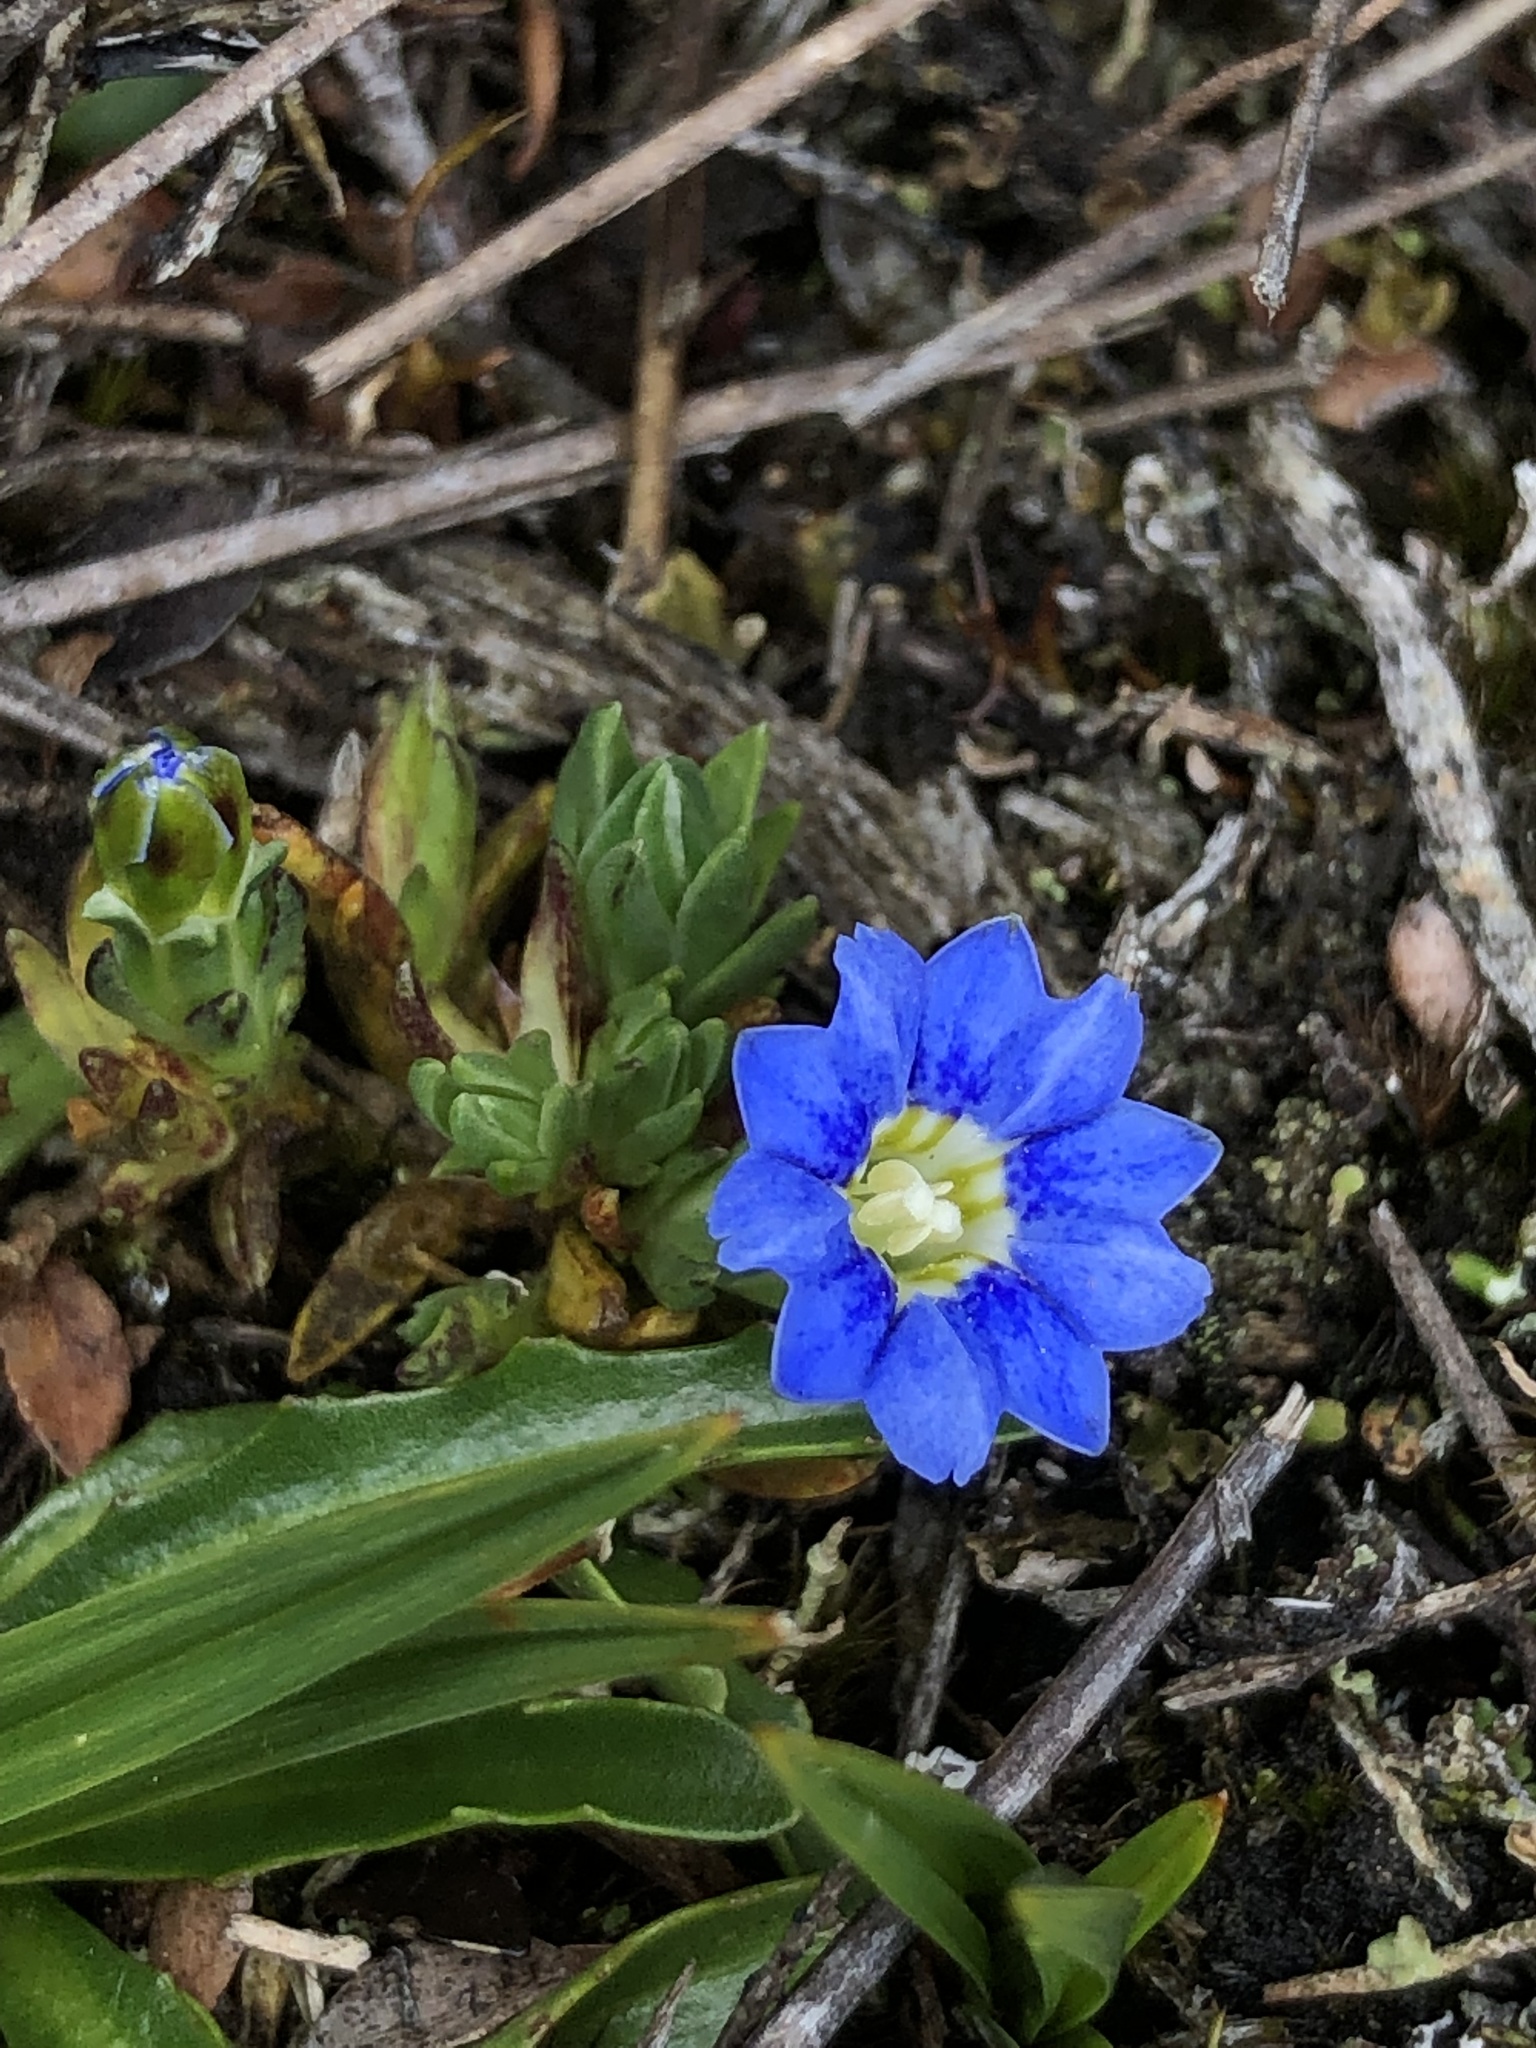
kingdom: Plantae
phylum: Tracheophyta
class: Magnoliopsida
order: Gentianales
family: Gentianaceae
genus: Gentiana
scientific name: Gentiana sedifolia
